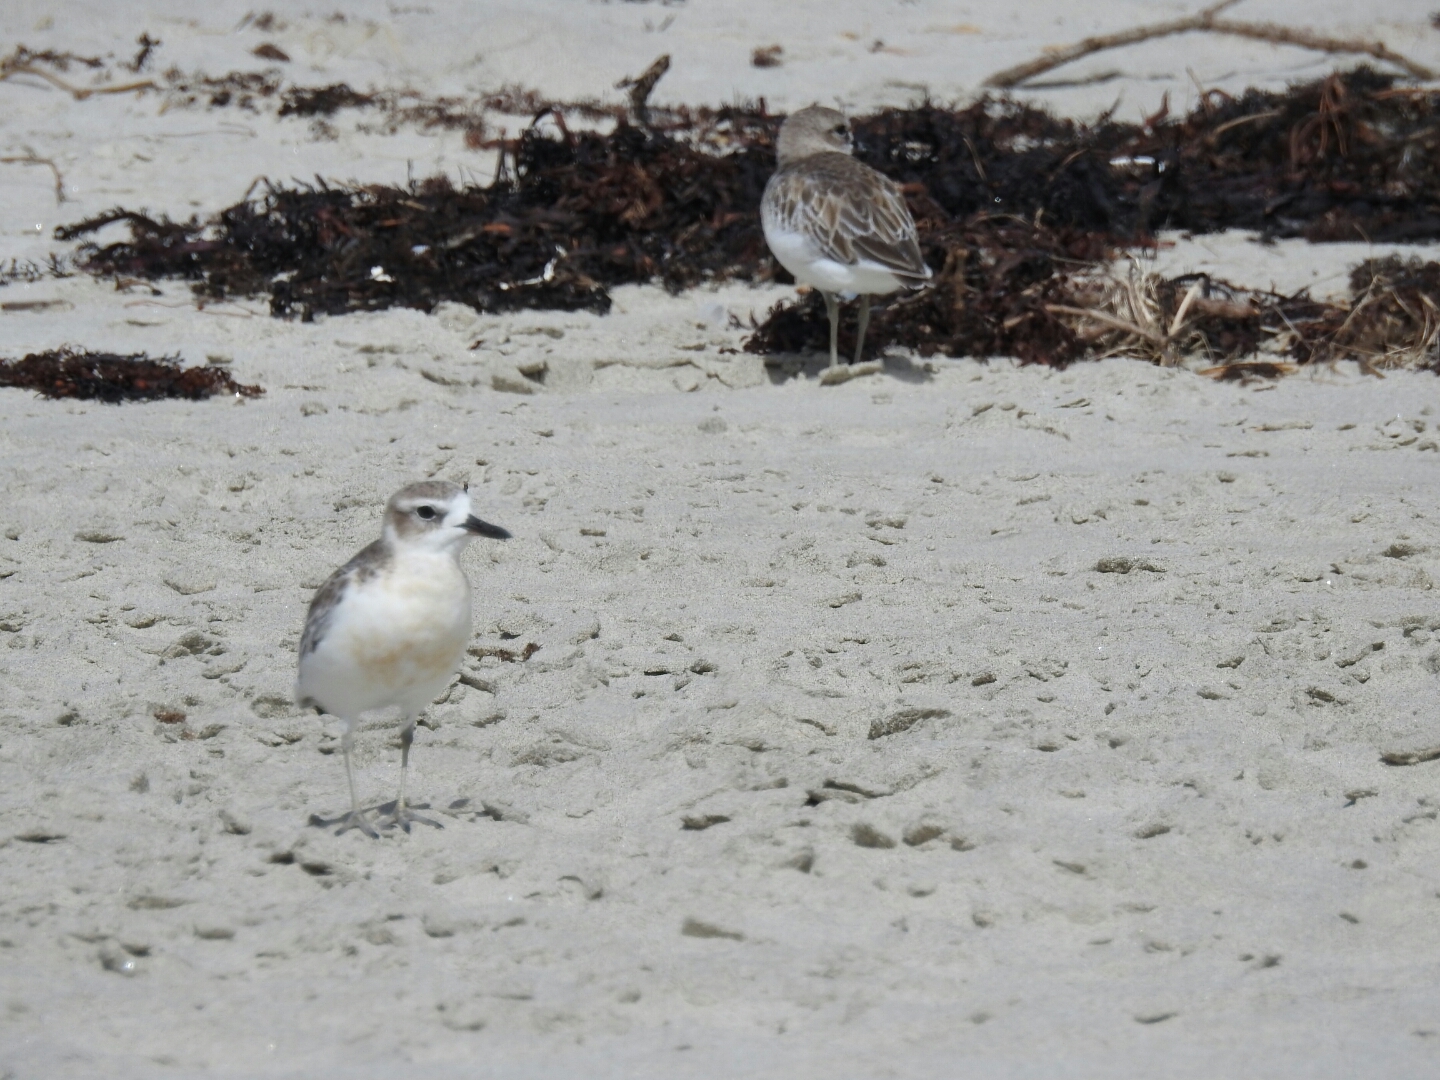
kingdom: Animalia
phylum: Chordata
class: Aves
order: Charadriiformes
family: Charadriidae
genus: Anarhynchus
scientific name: Anarhynchus
